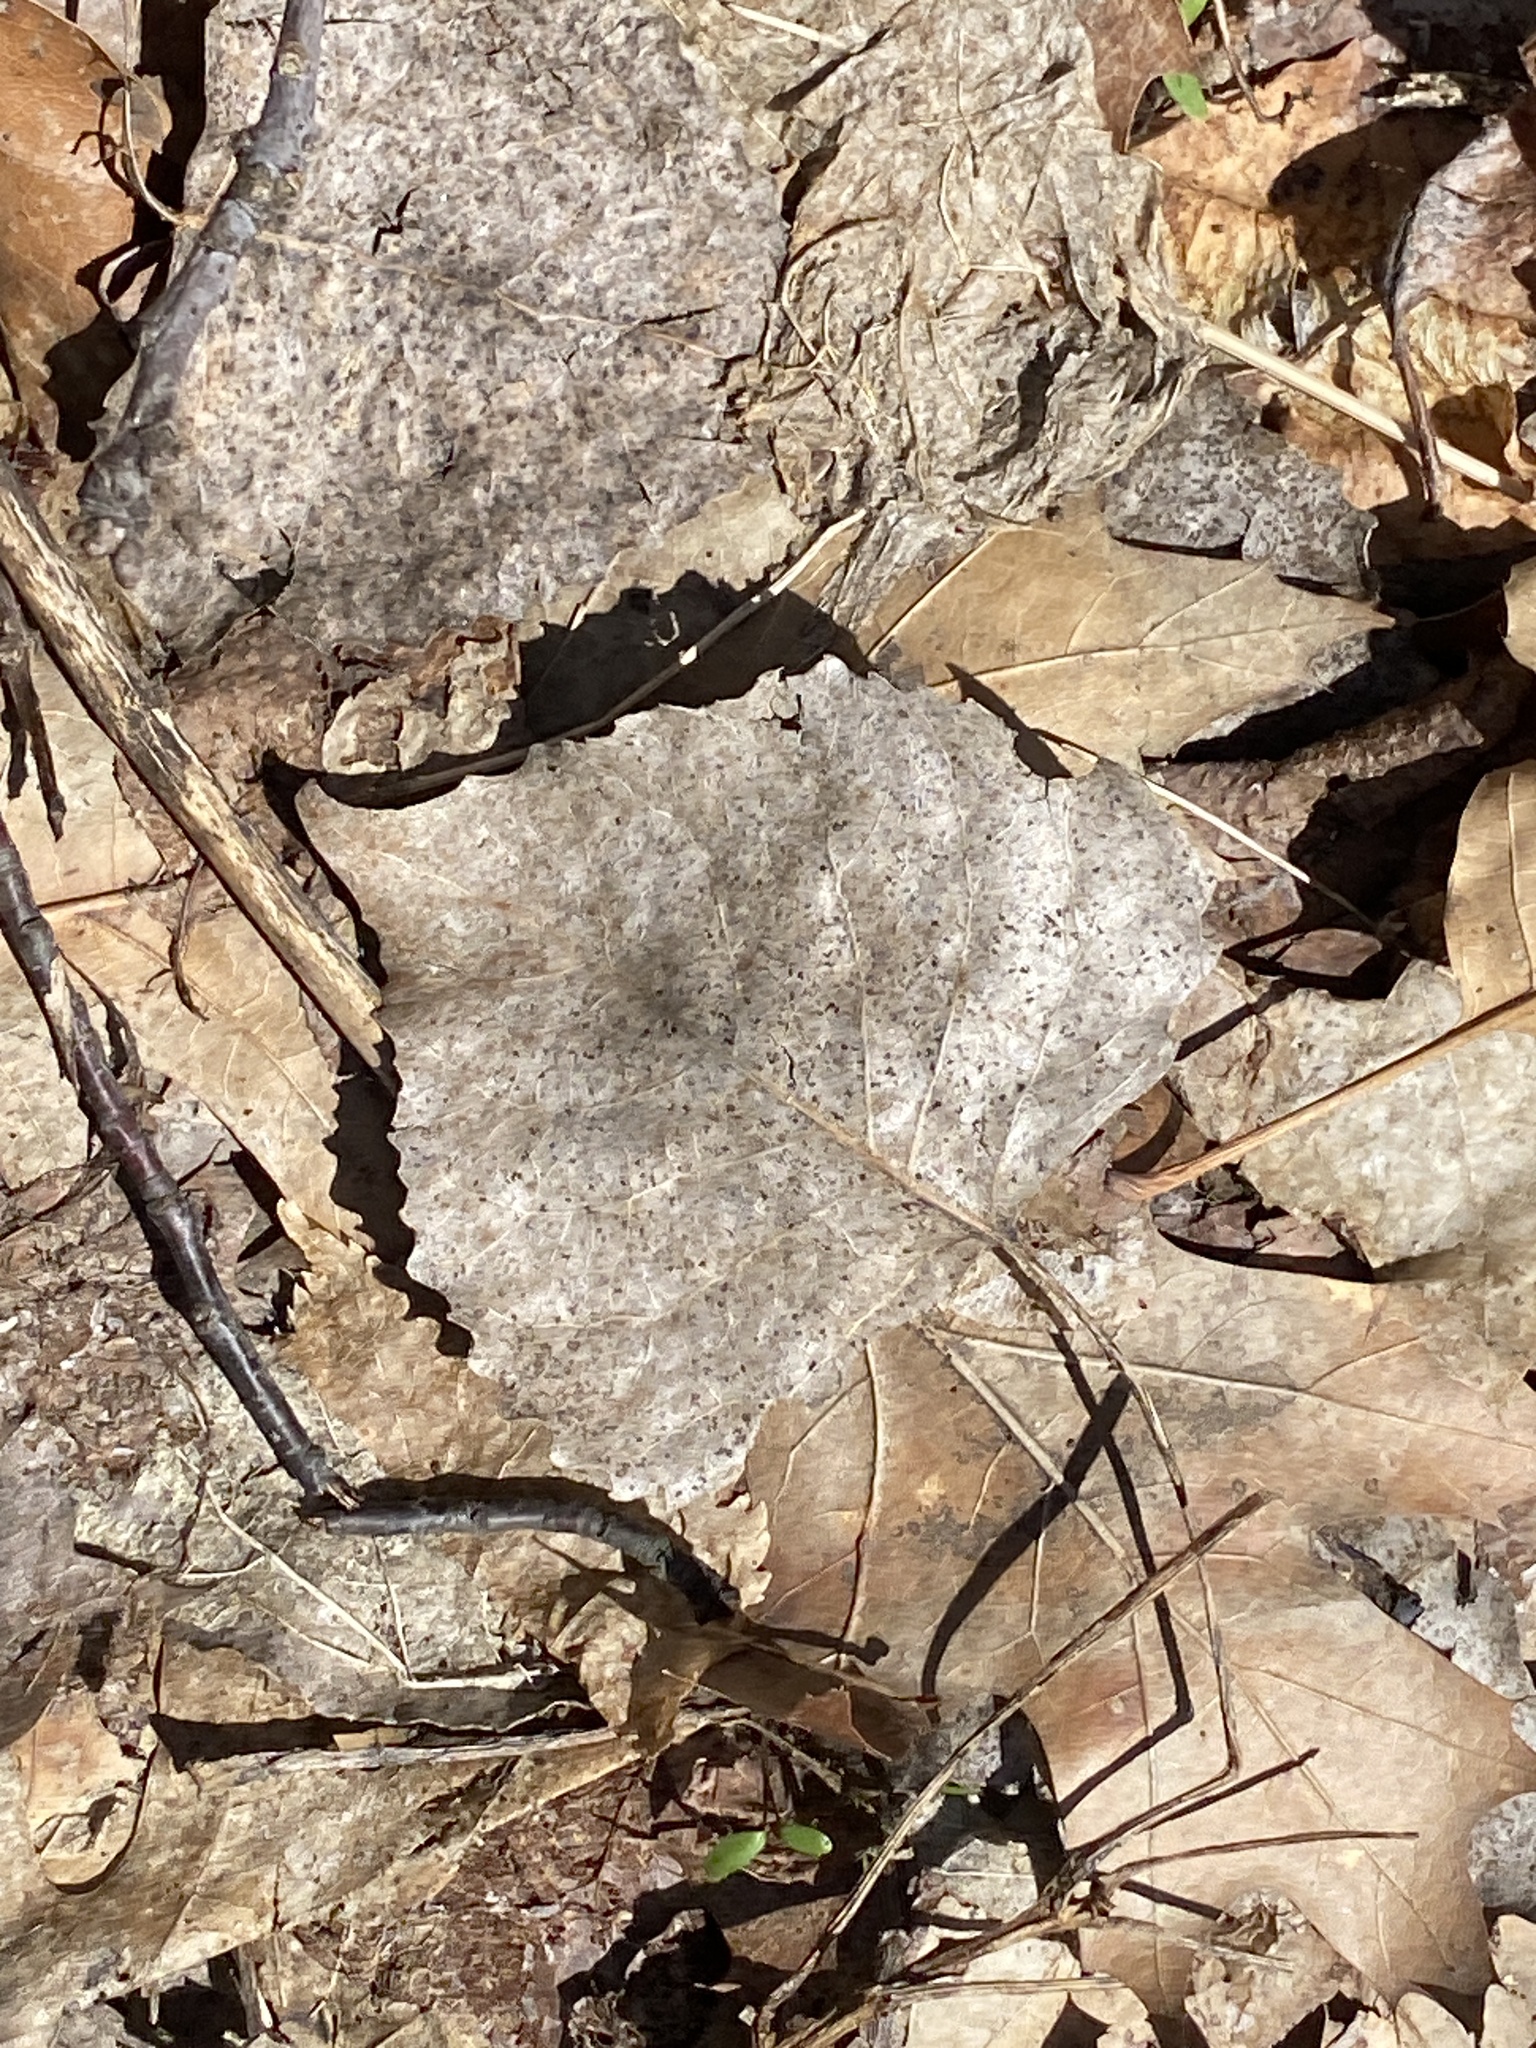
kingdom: Plantae
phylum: Tracheophyta
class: Magnoliopsida
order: Malpighiales
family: Salicaceae
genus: Populus
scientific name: Populus deltoides
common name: Eastern cottonwood
